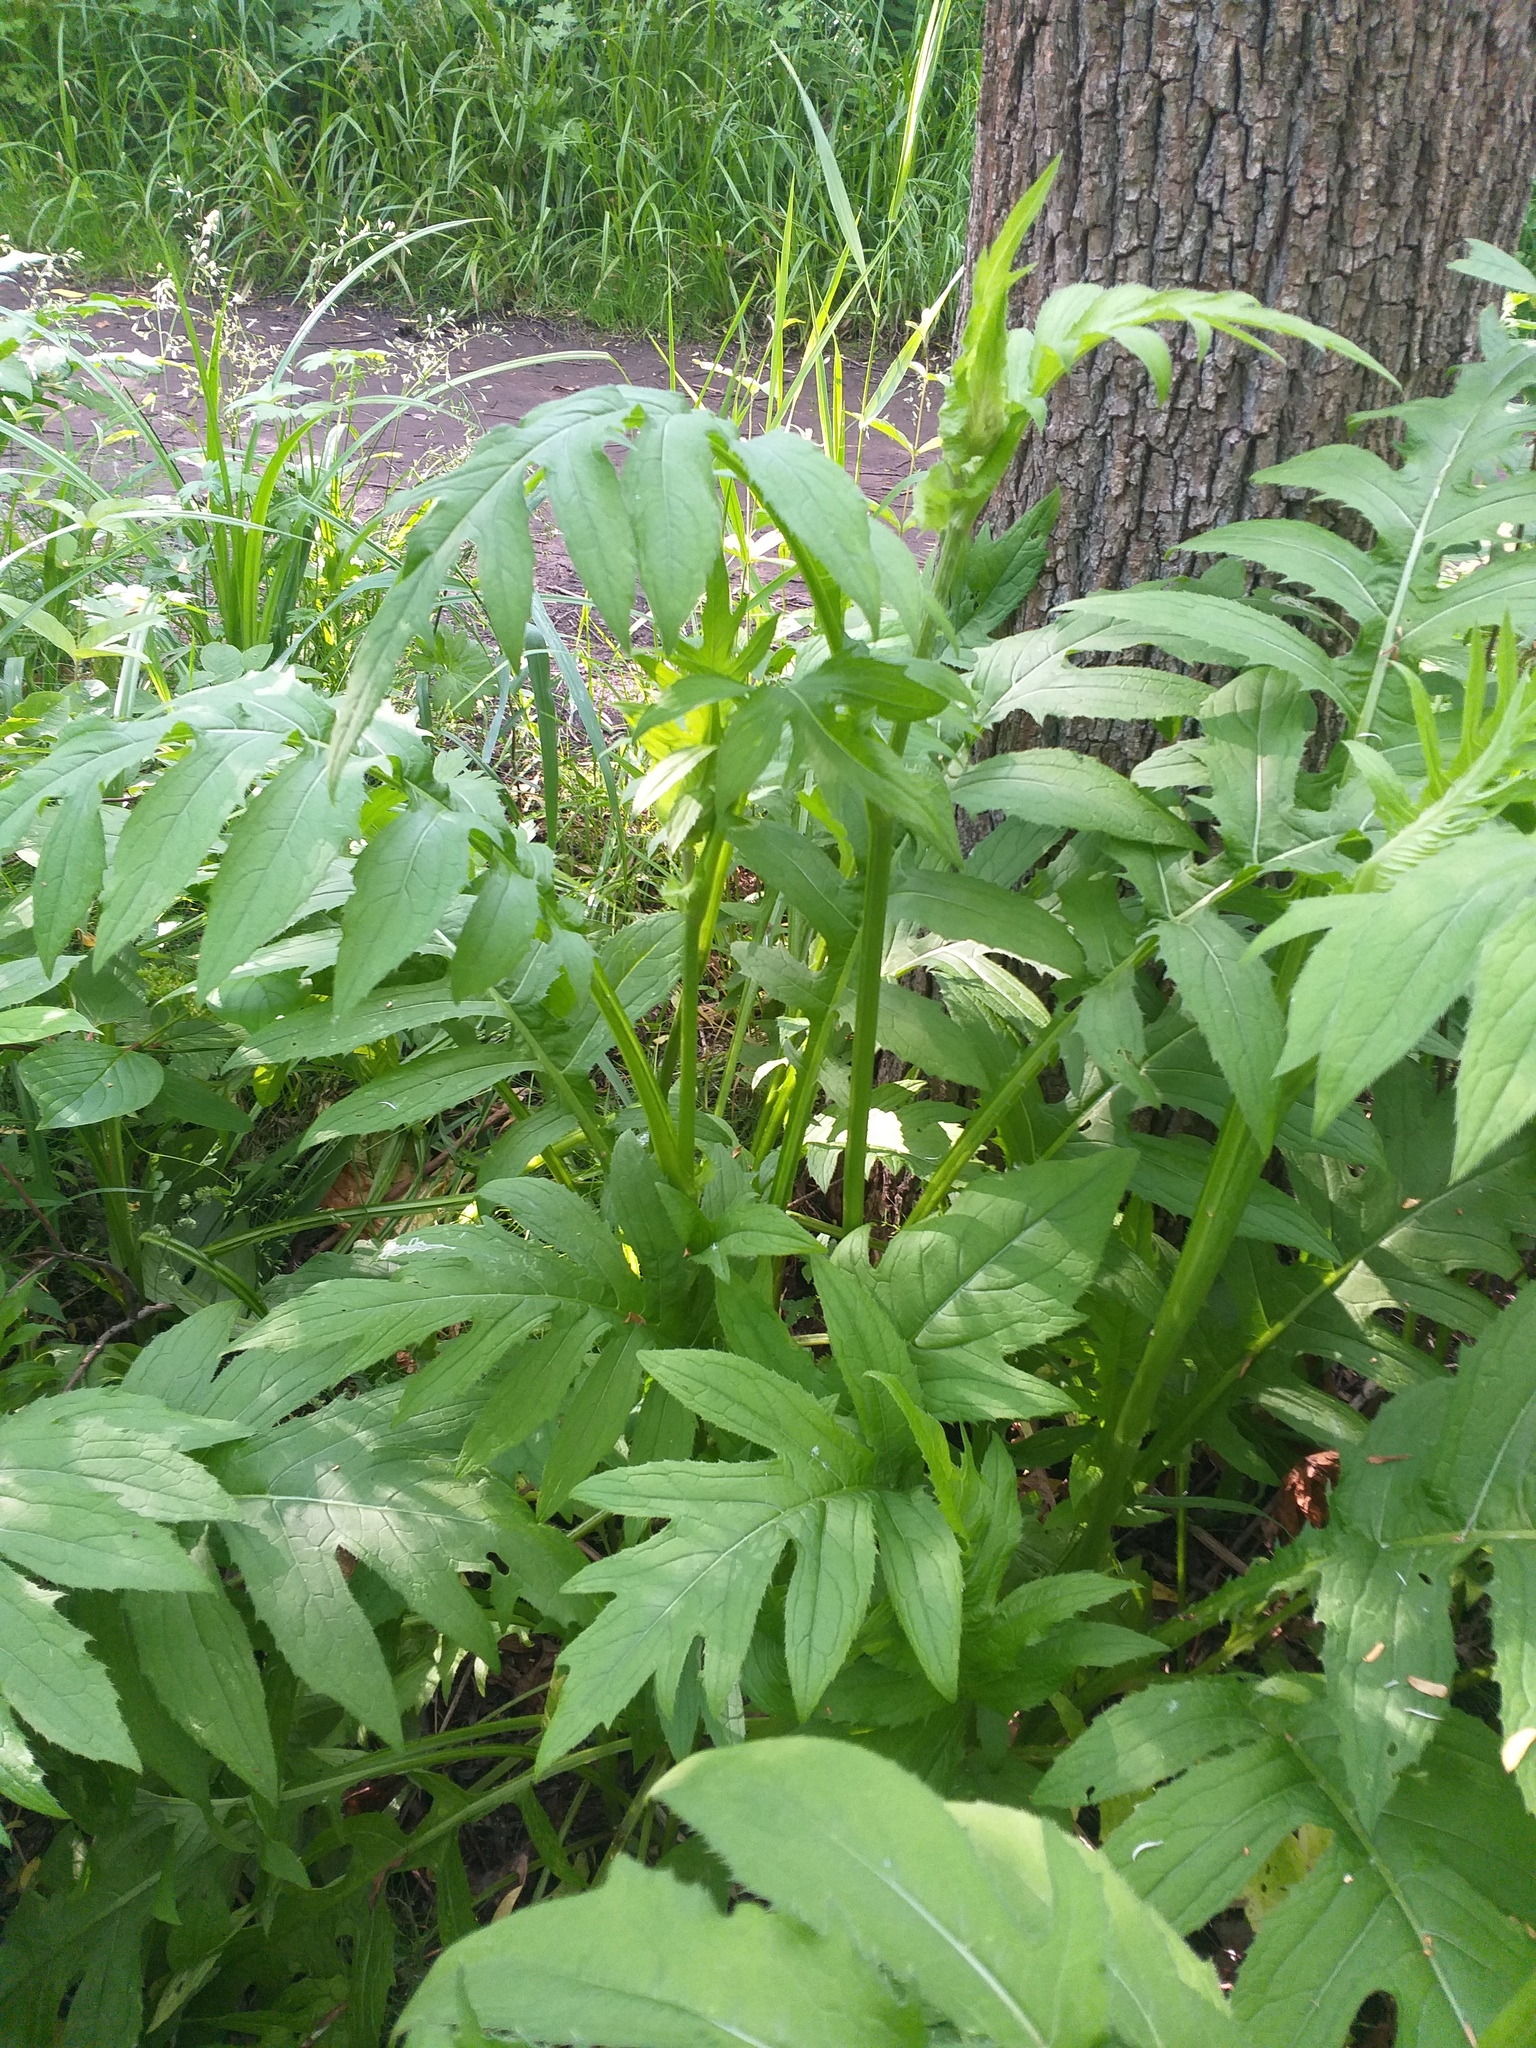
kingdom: Plantae
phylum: Tracheophyta
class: Magnoliopsida
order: Asterales
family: Asteraceae
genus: Cirsium
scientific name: Cirsium oleraceum
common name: Cabbage thistle
